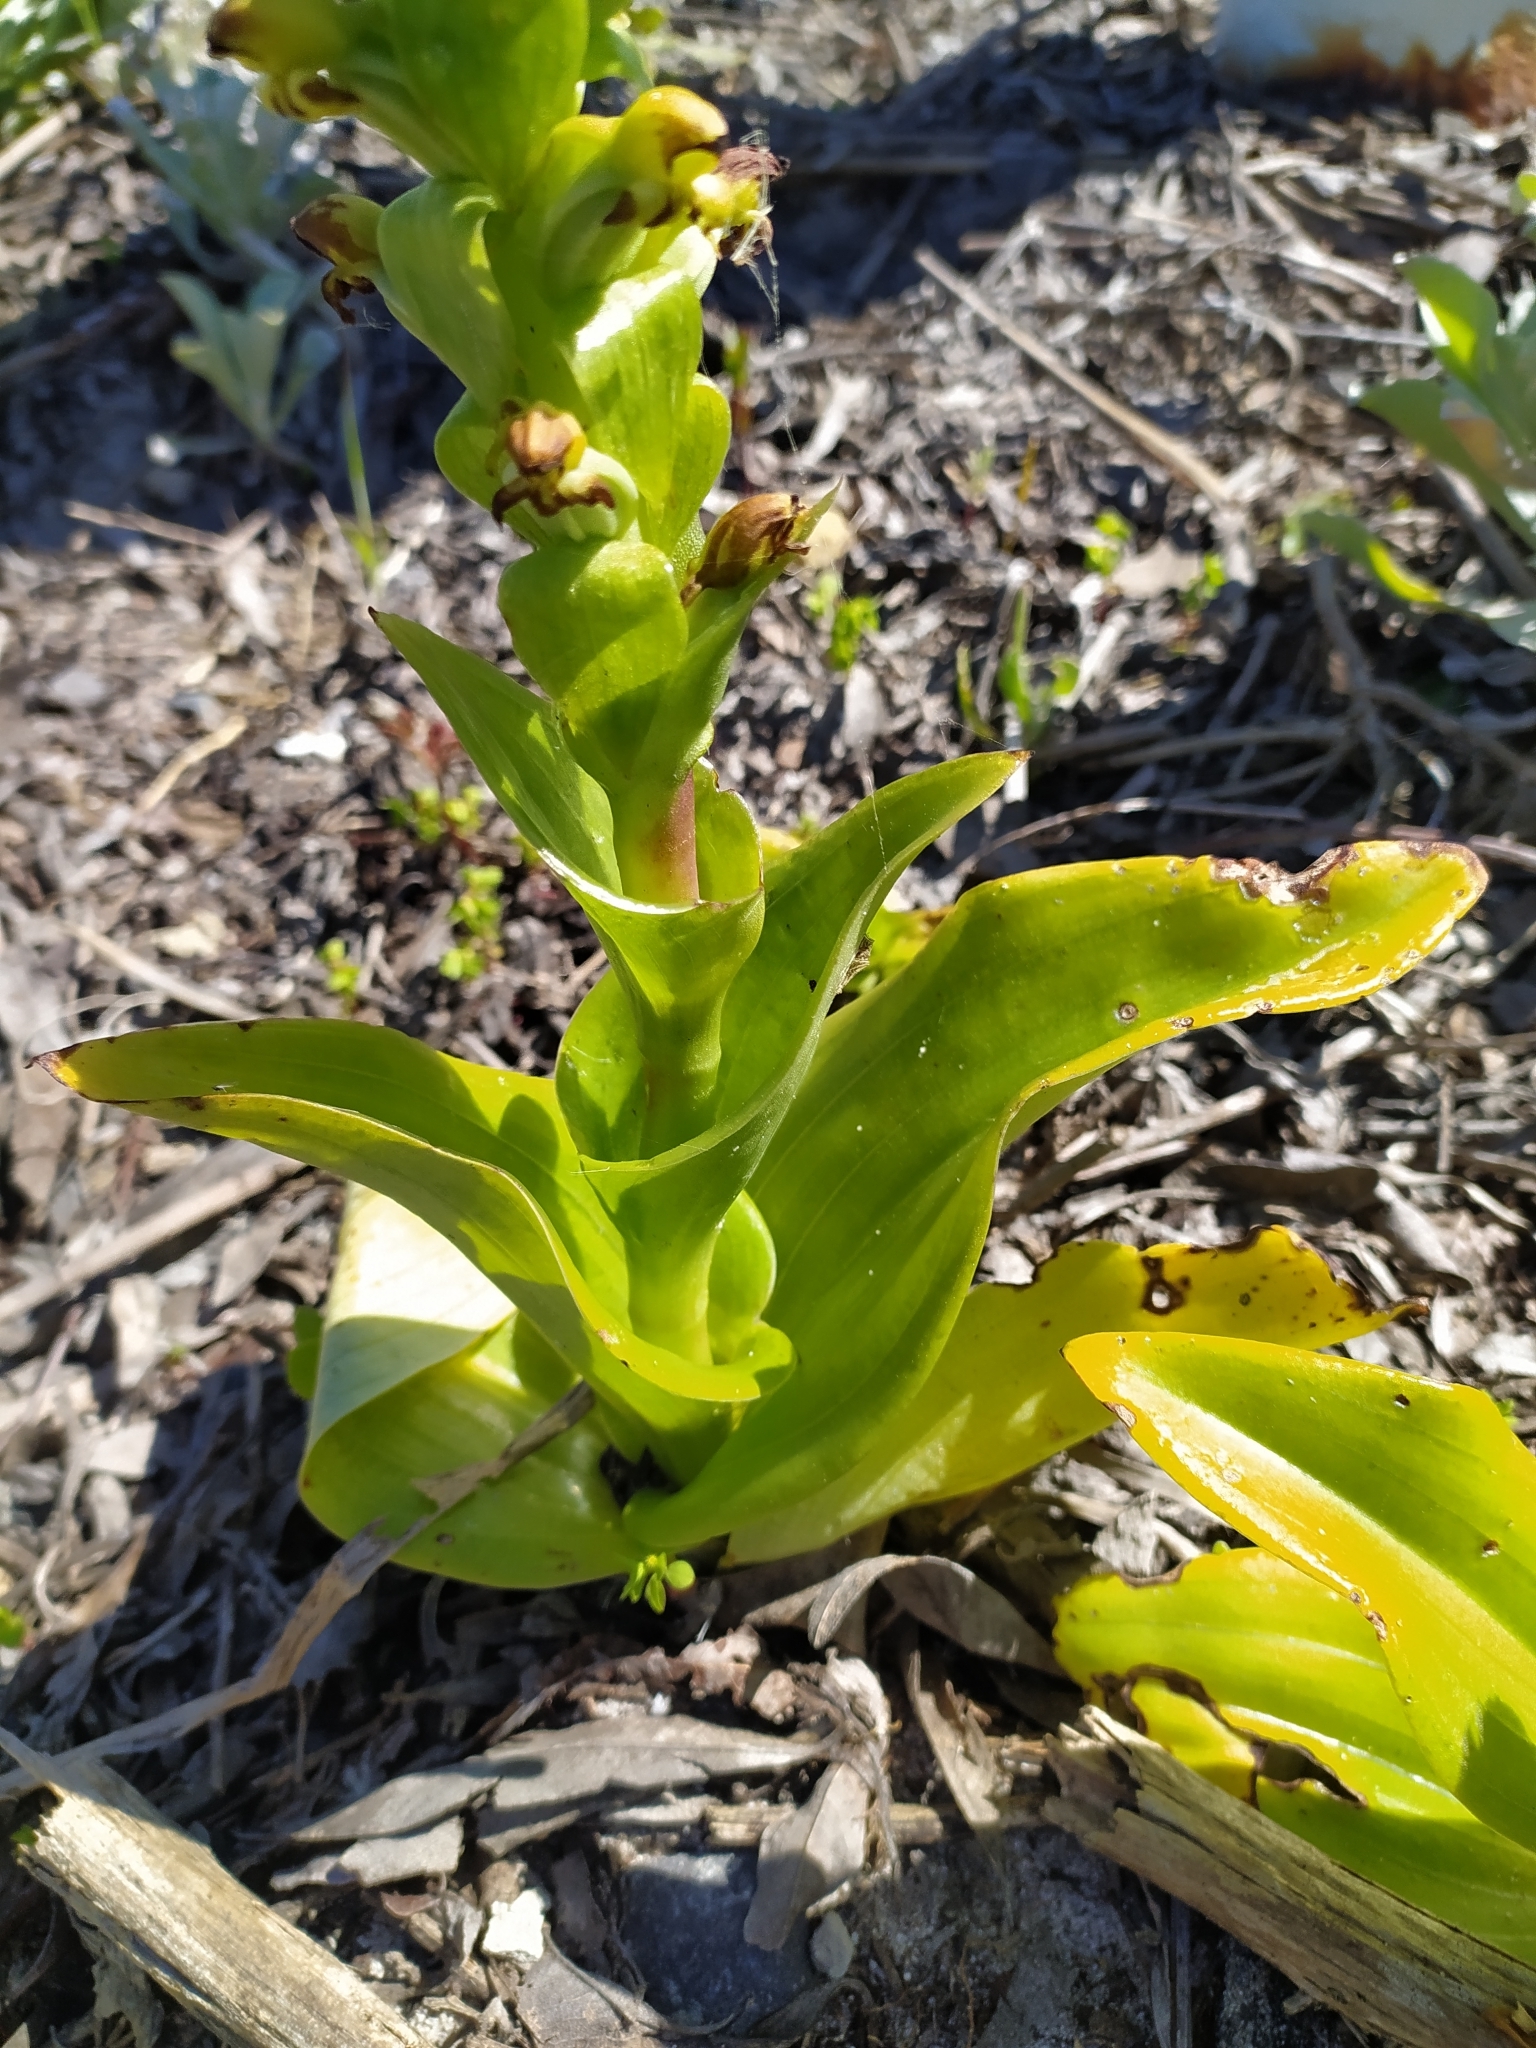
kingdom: Plantae
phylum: Tracheophyta
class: Liliopsida
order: Asparagales
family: Orchidaceae
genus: Satyrium
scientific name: Satyrium odorum
